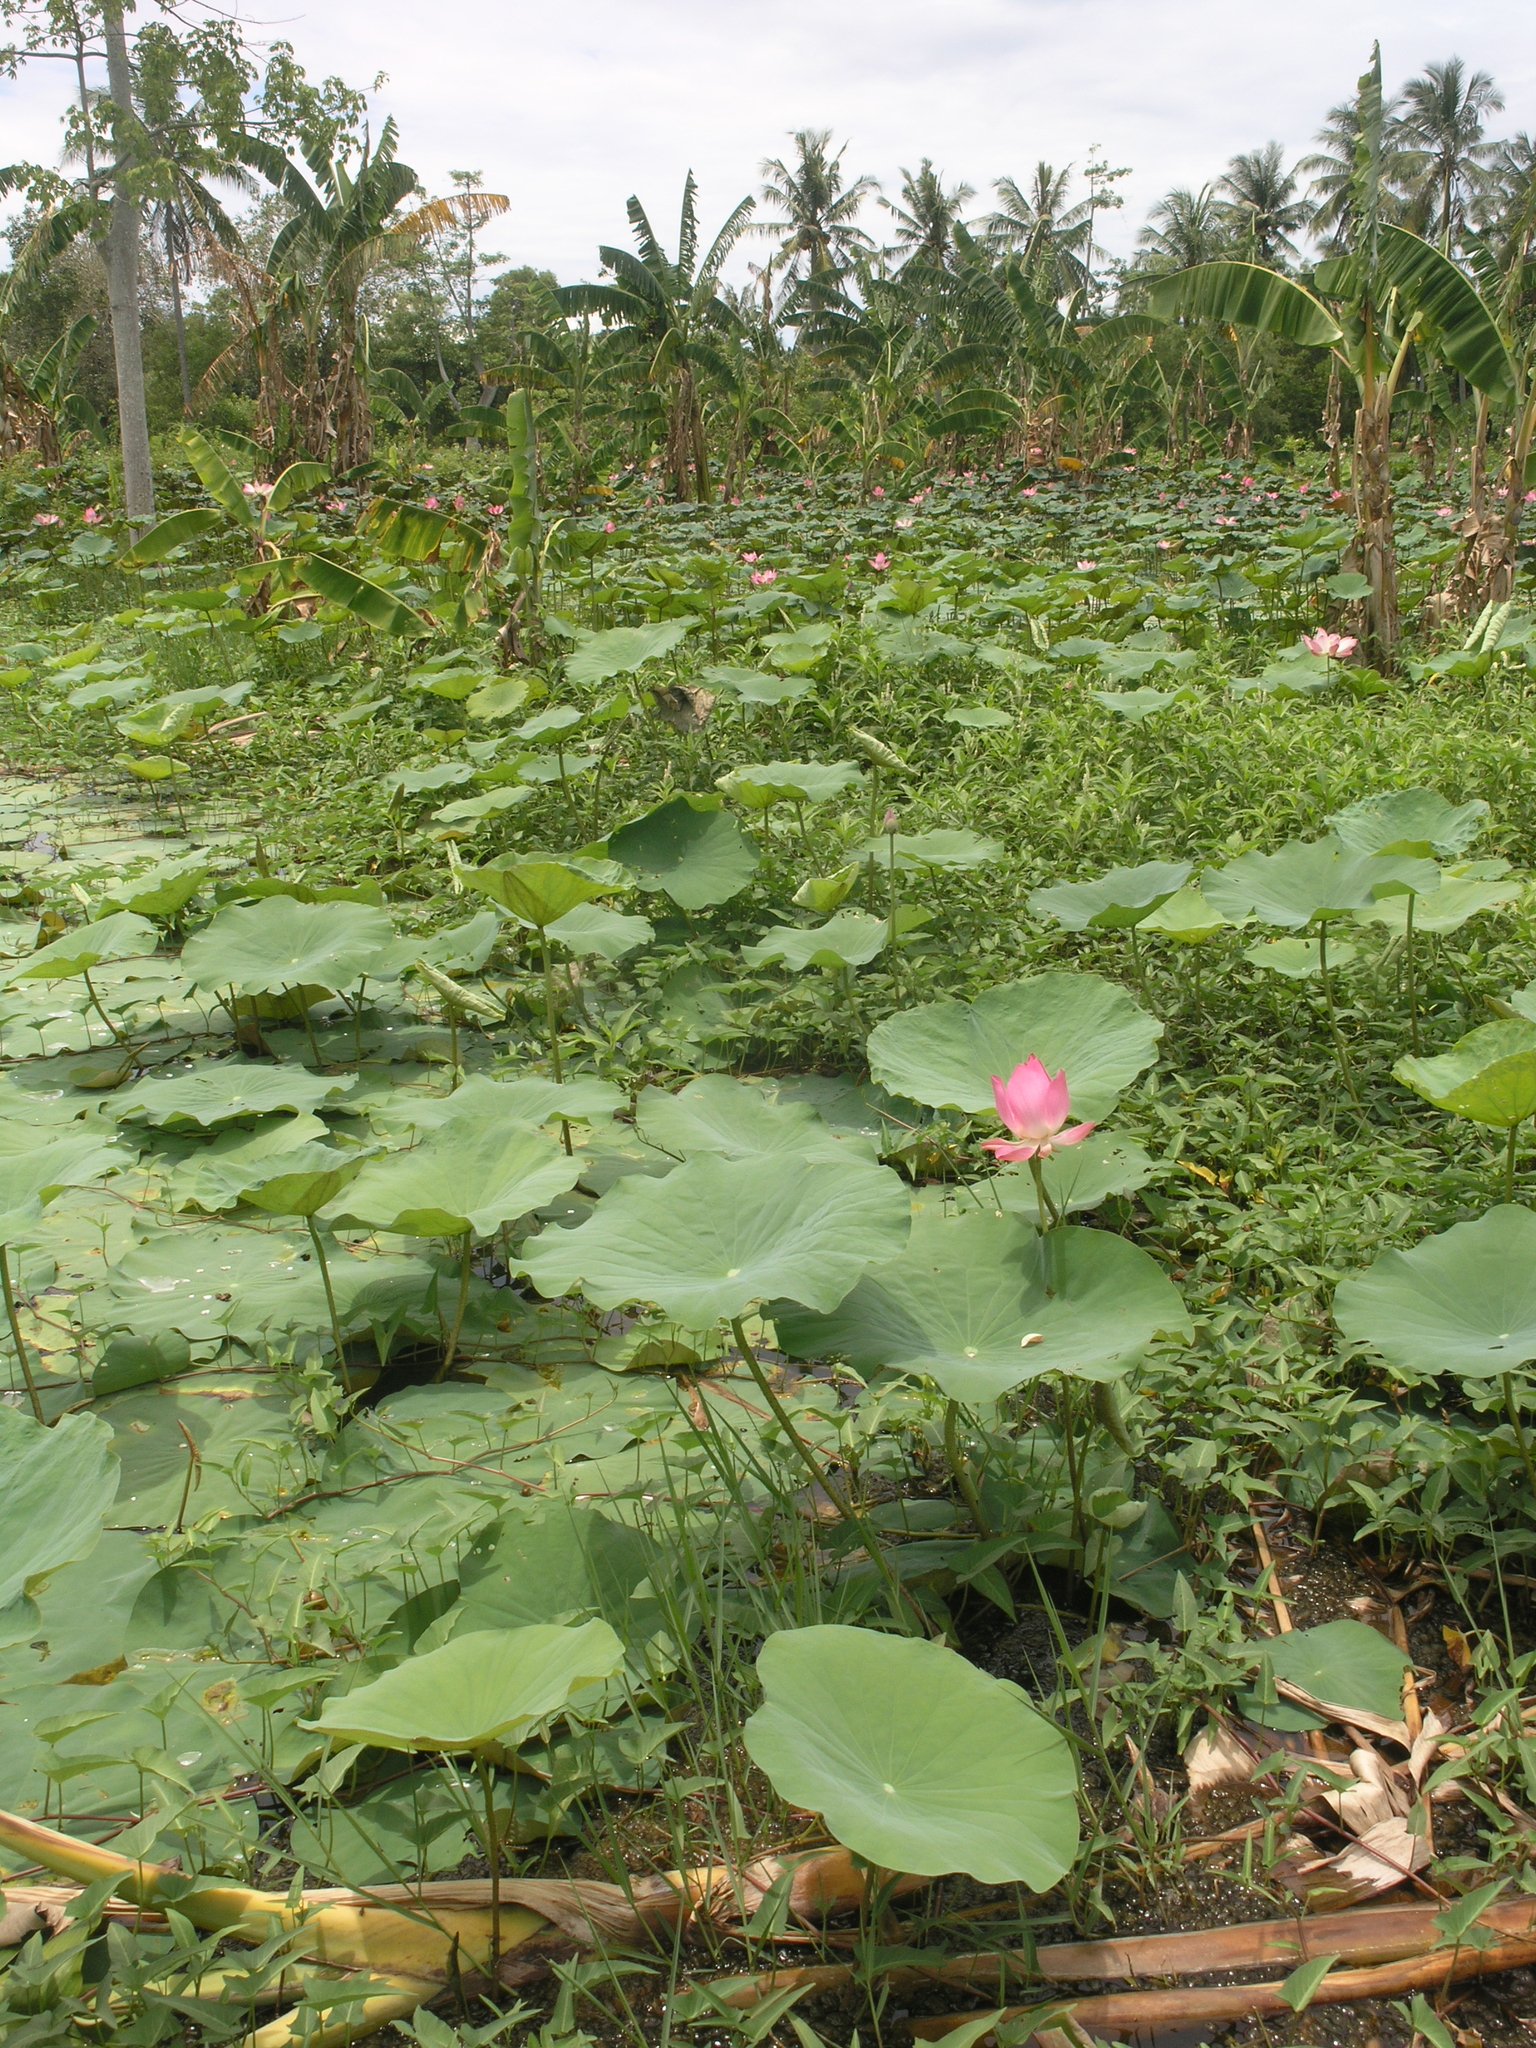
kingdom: Plantae
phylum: Tracheophyta
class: Magnoliopsida
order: Proteales
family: Nelumbonaceae
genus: Nelumbo
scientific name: Nelumbo nucifera
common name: Sacred lotus
